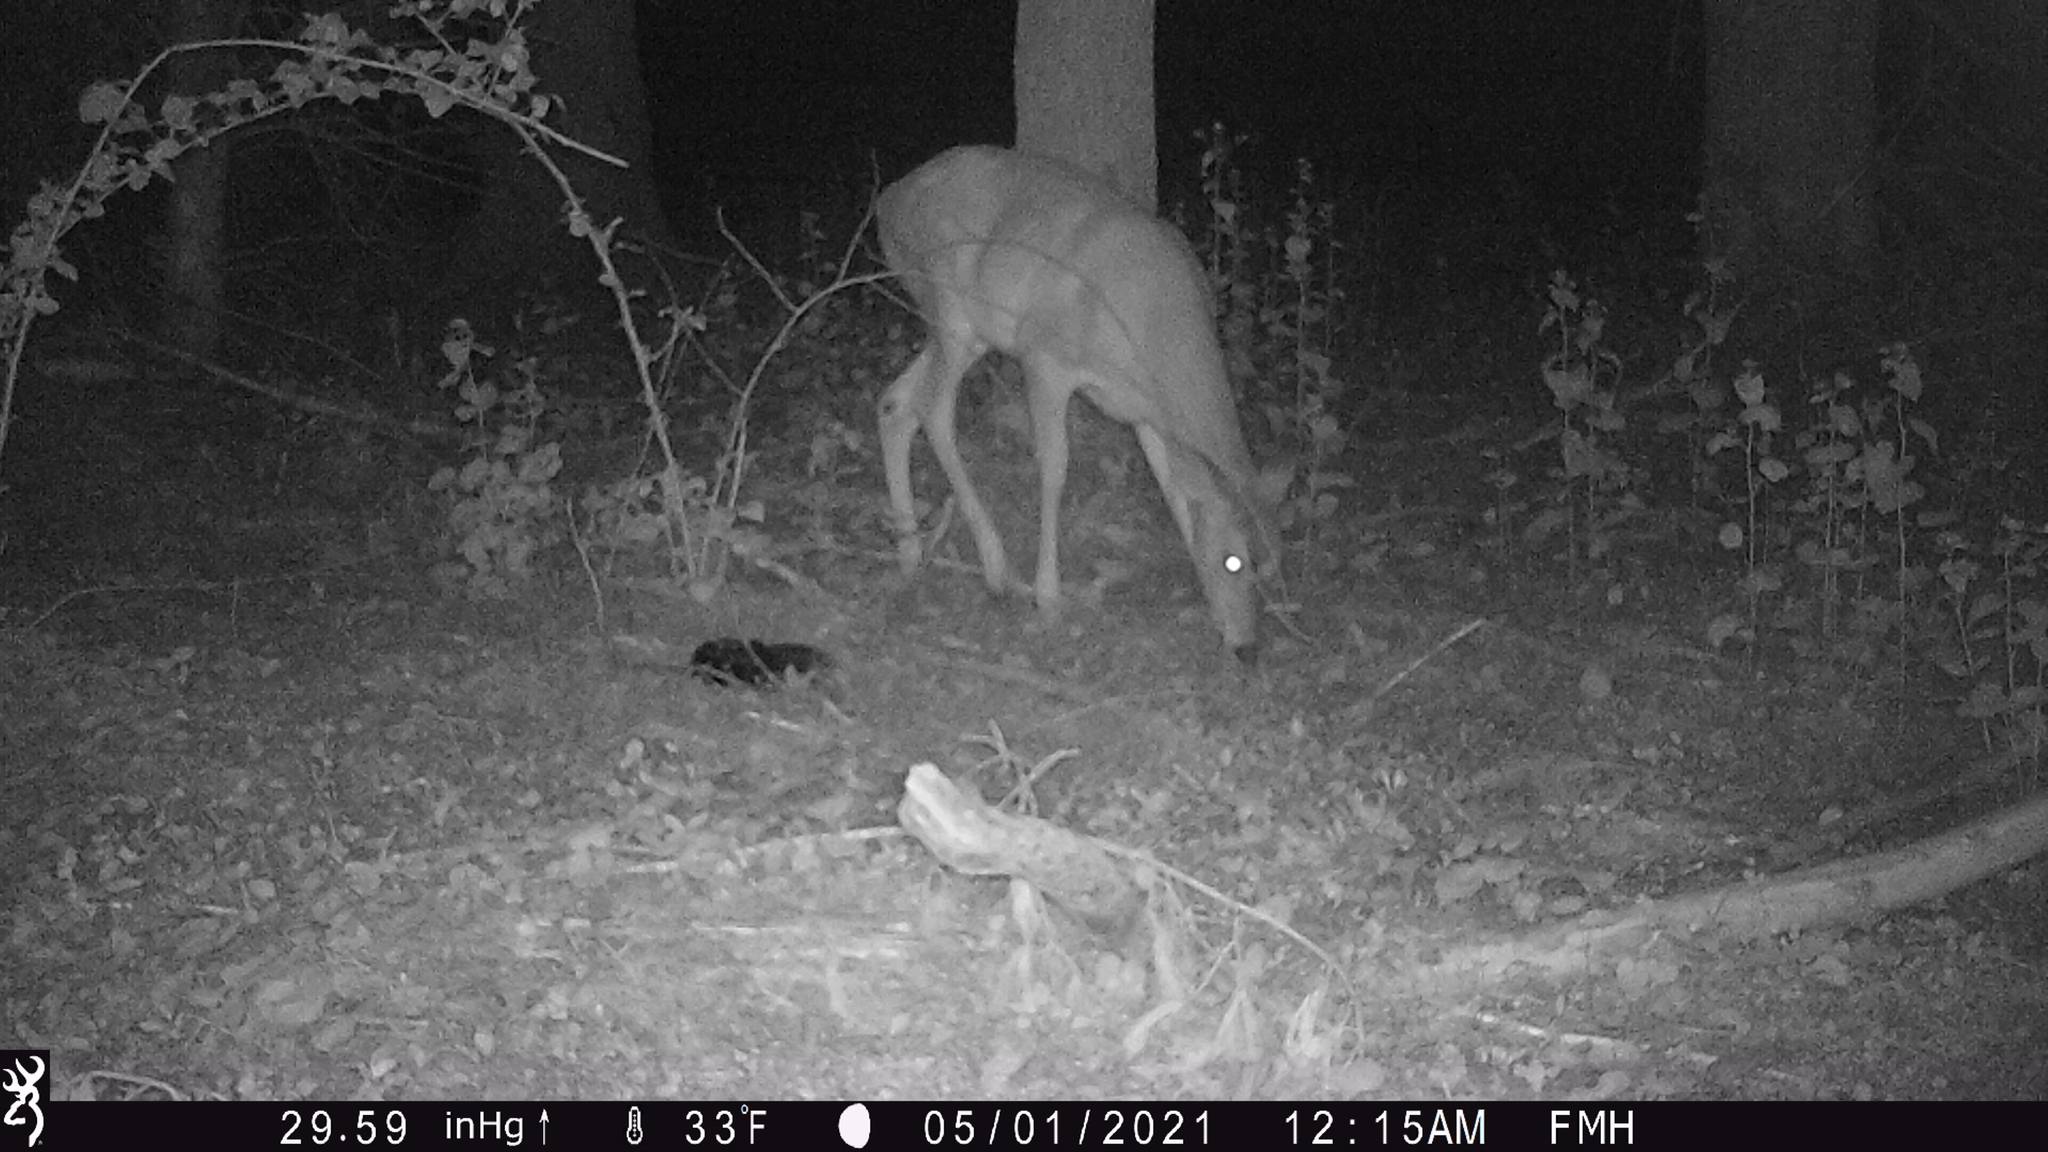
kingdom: Animalia
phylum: Chordata
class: Mammalia
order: Artiodactyla
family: Cervidae
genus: Odocoileus
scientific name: Odocoileus virginianus
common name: White-tailed deer
